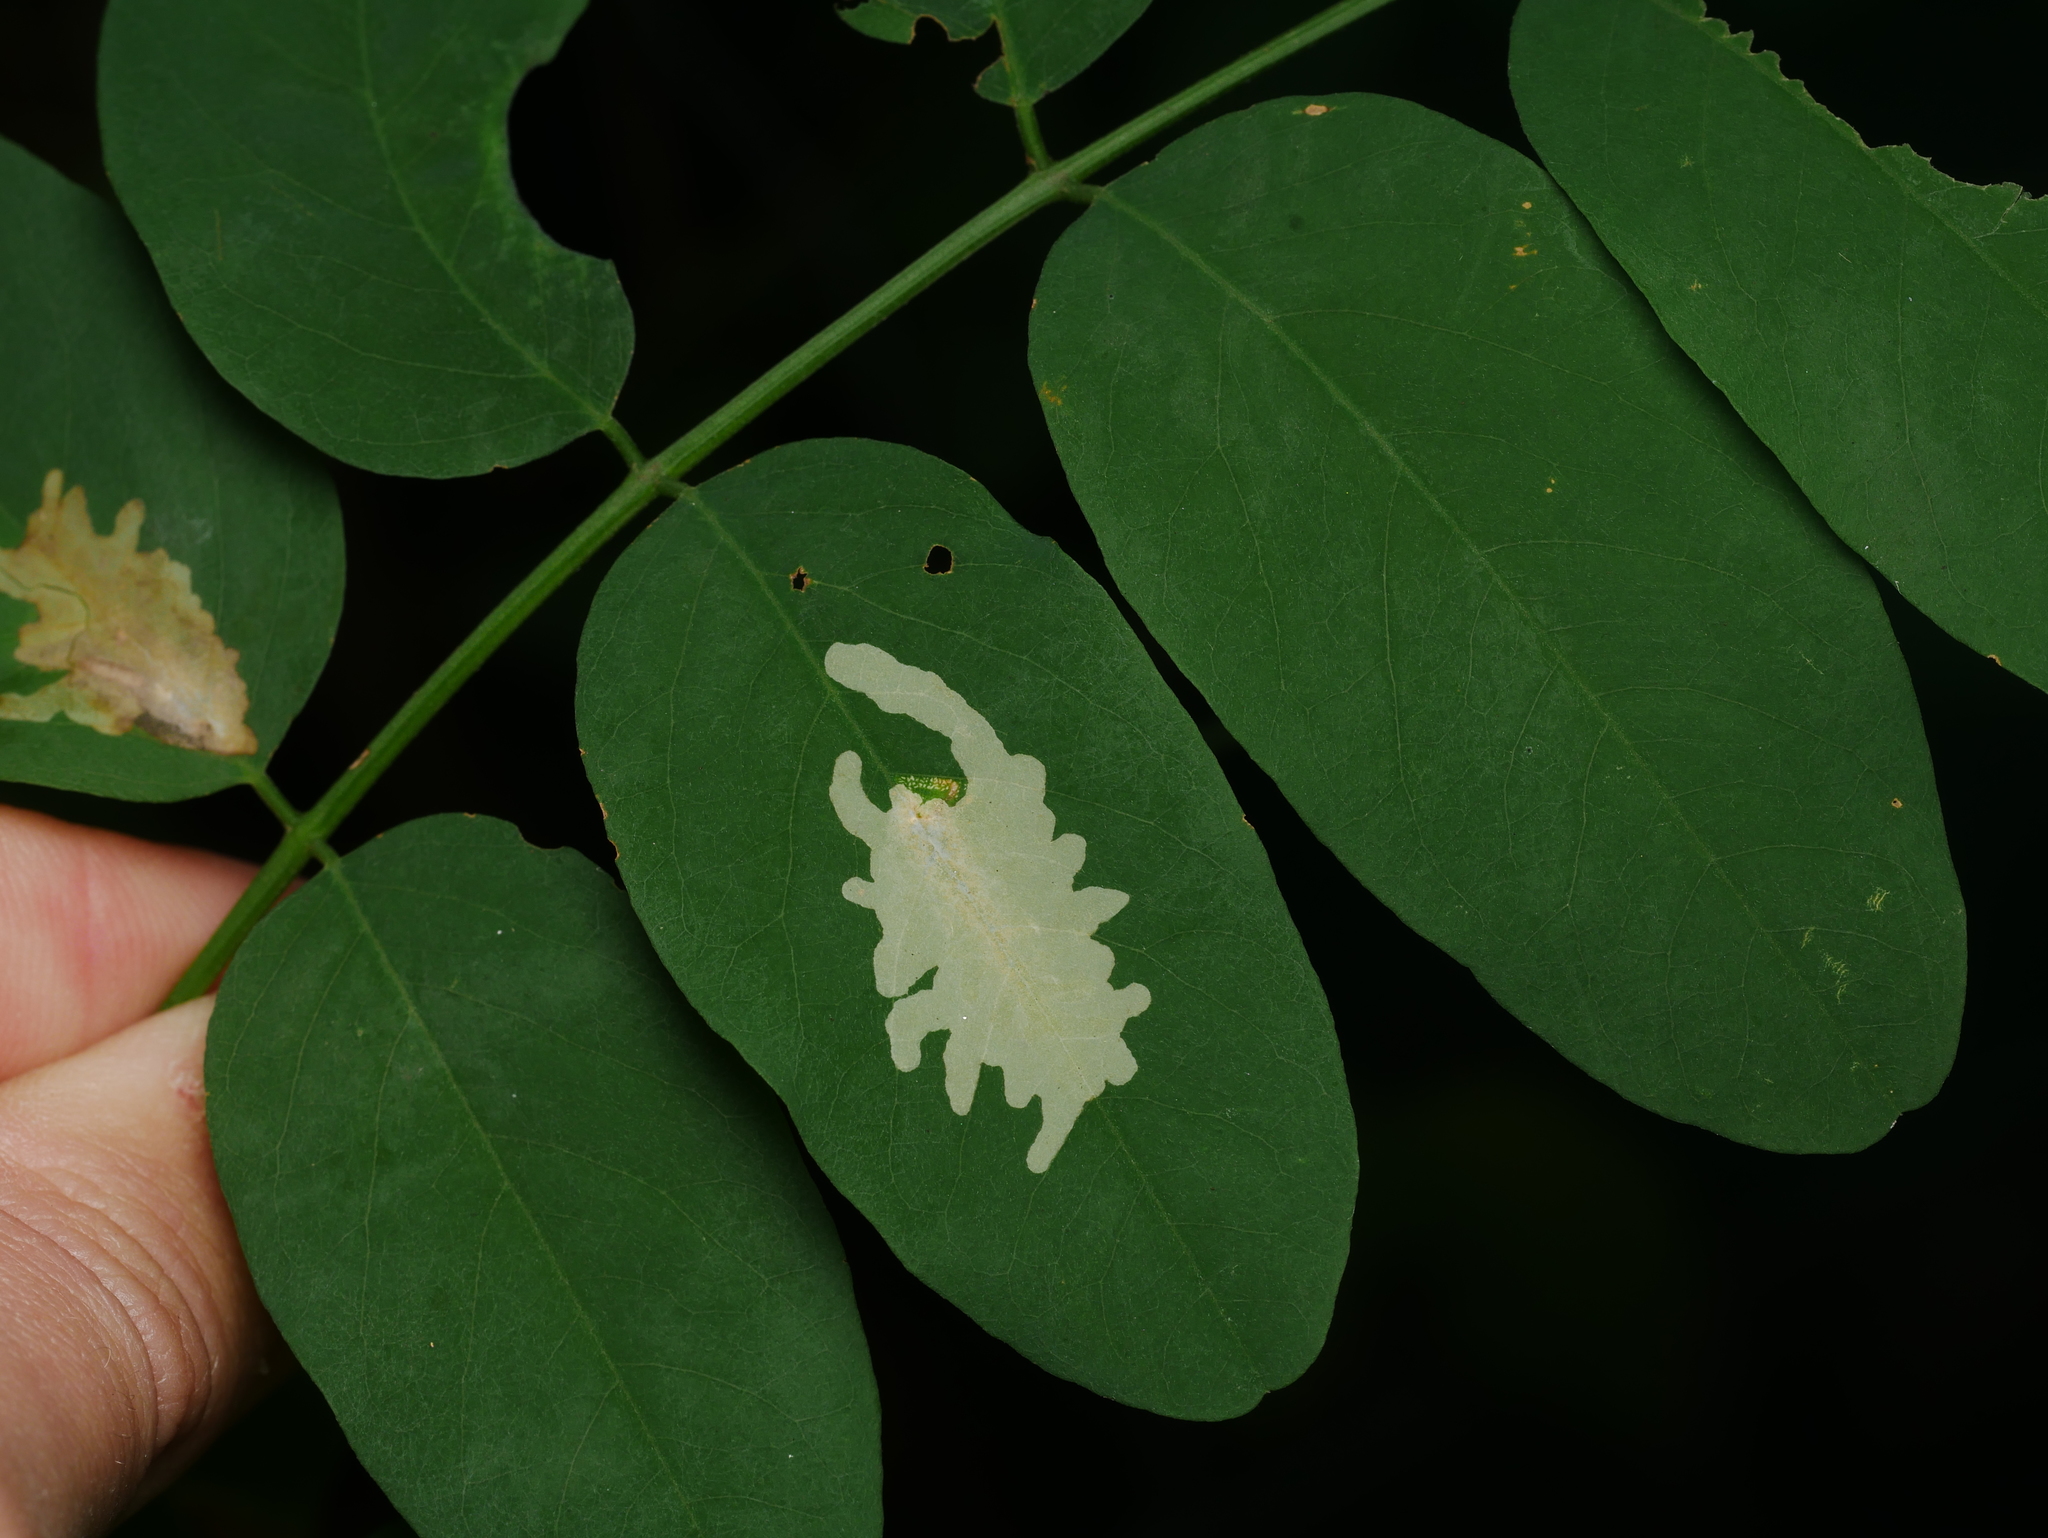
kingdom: Animalia
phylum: Arthropoda
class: Insecta
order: Lepidoptera
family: Gracillariidae
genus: Parectopa
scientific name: Parectopa robiniella
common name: Locust digitate leafminer
